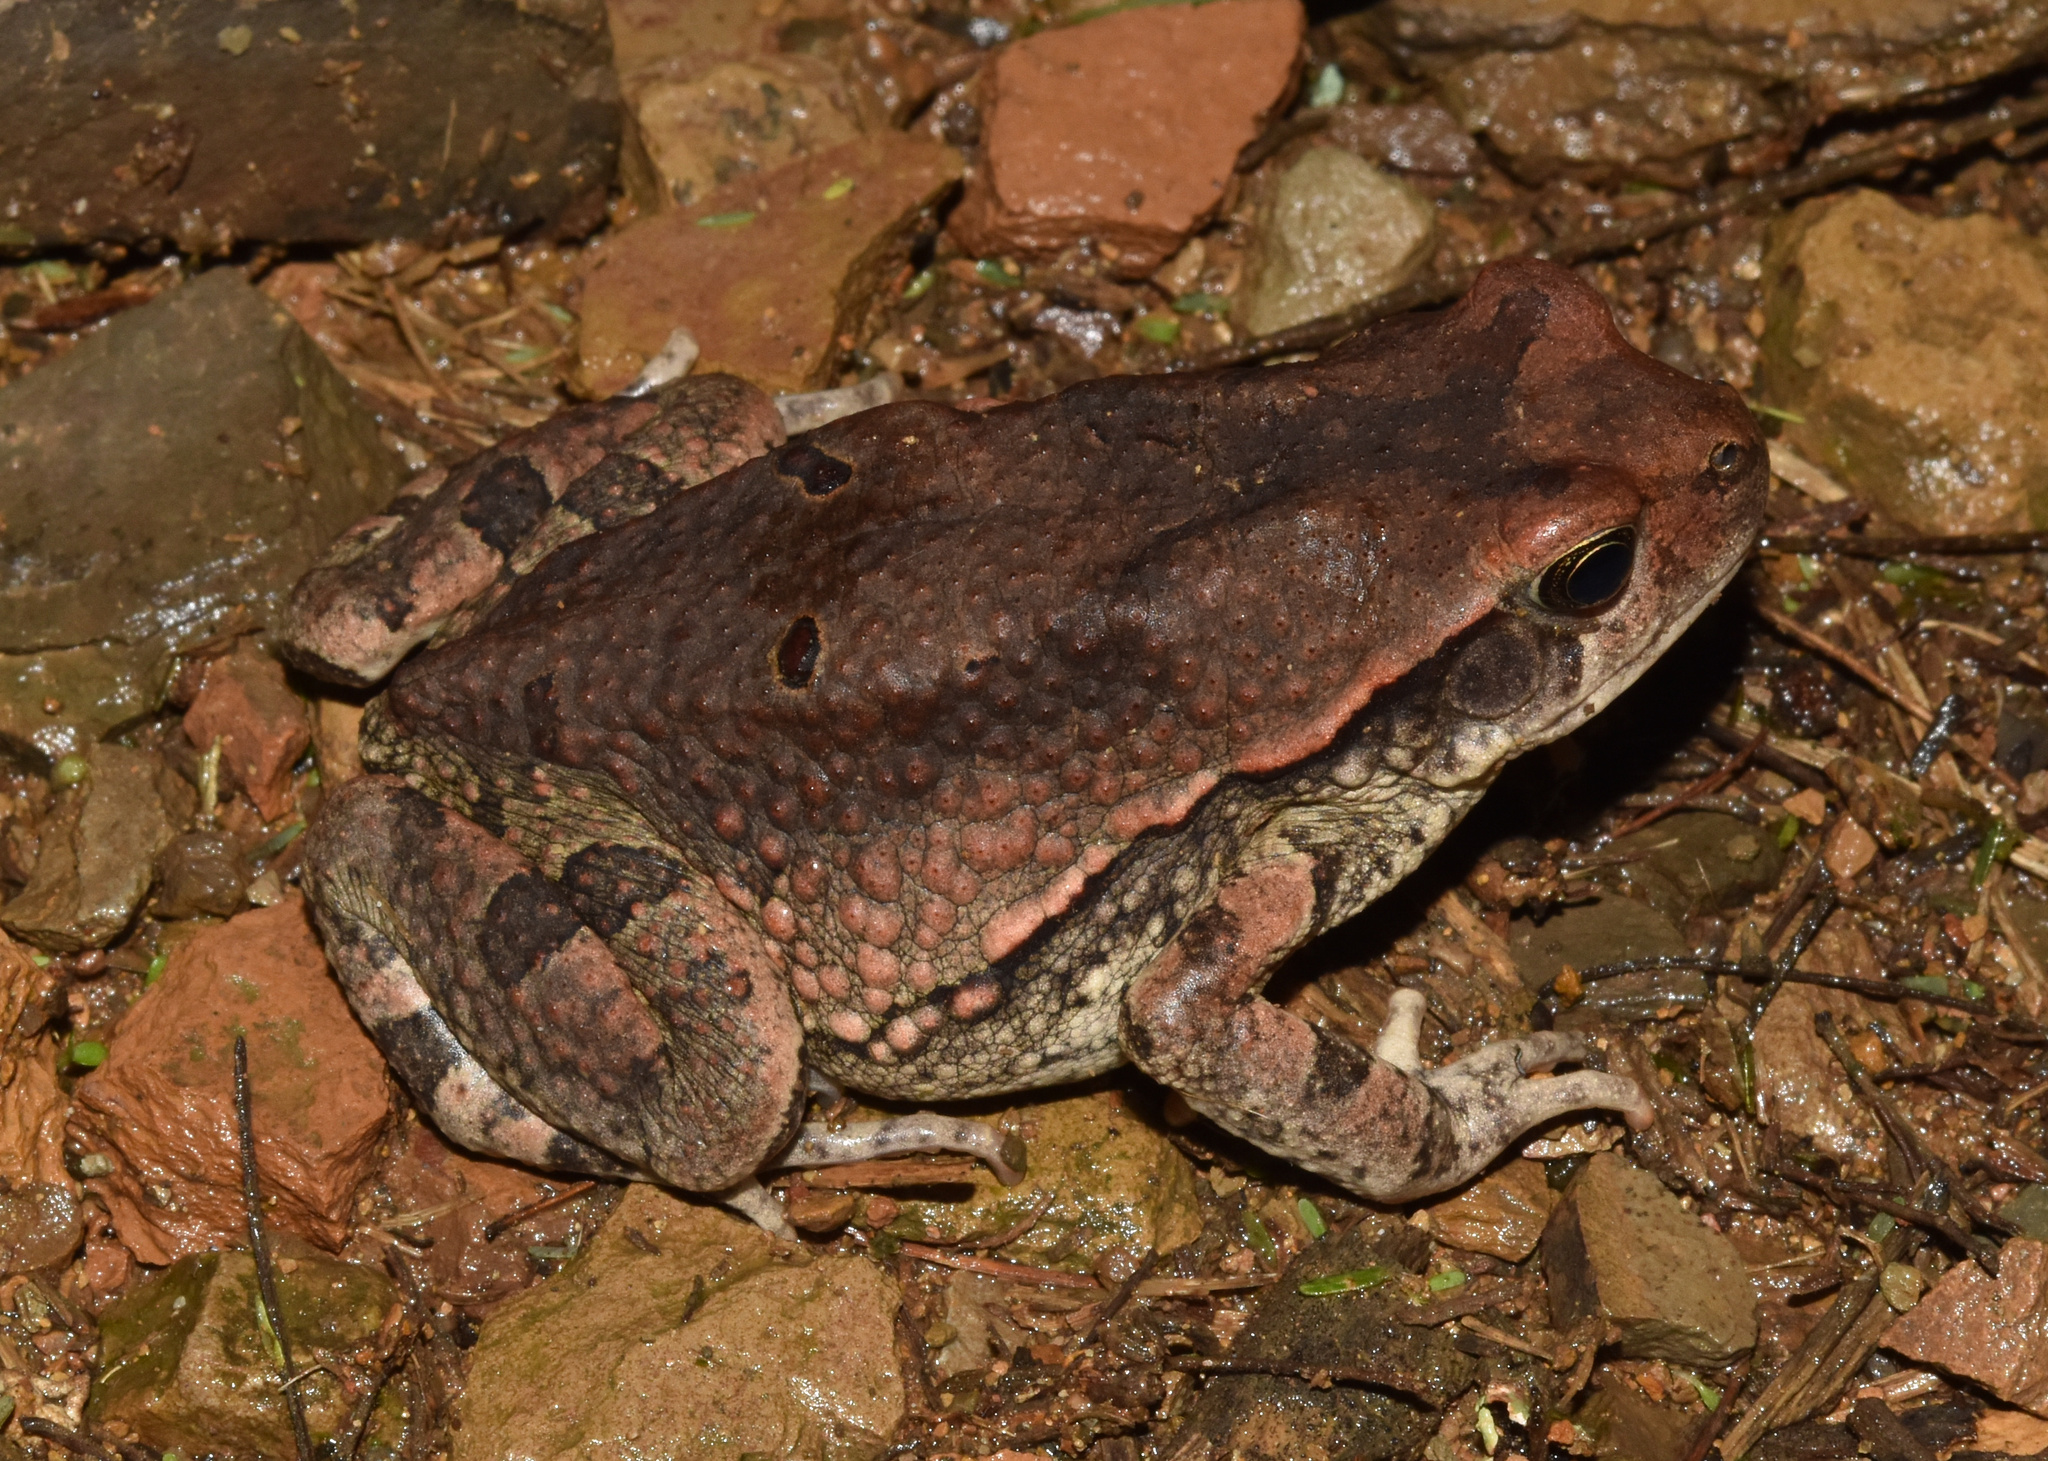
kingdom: Animalia
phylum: Chordata
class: Amphibia
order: Anura
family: Bufonidae
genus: Schismaderma
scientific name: Schismaderma carens
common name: African split-skin toad
